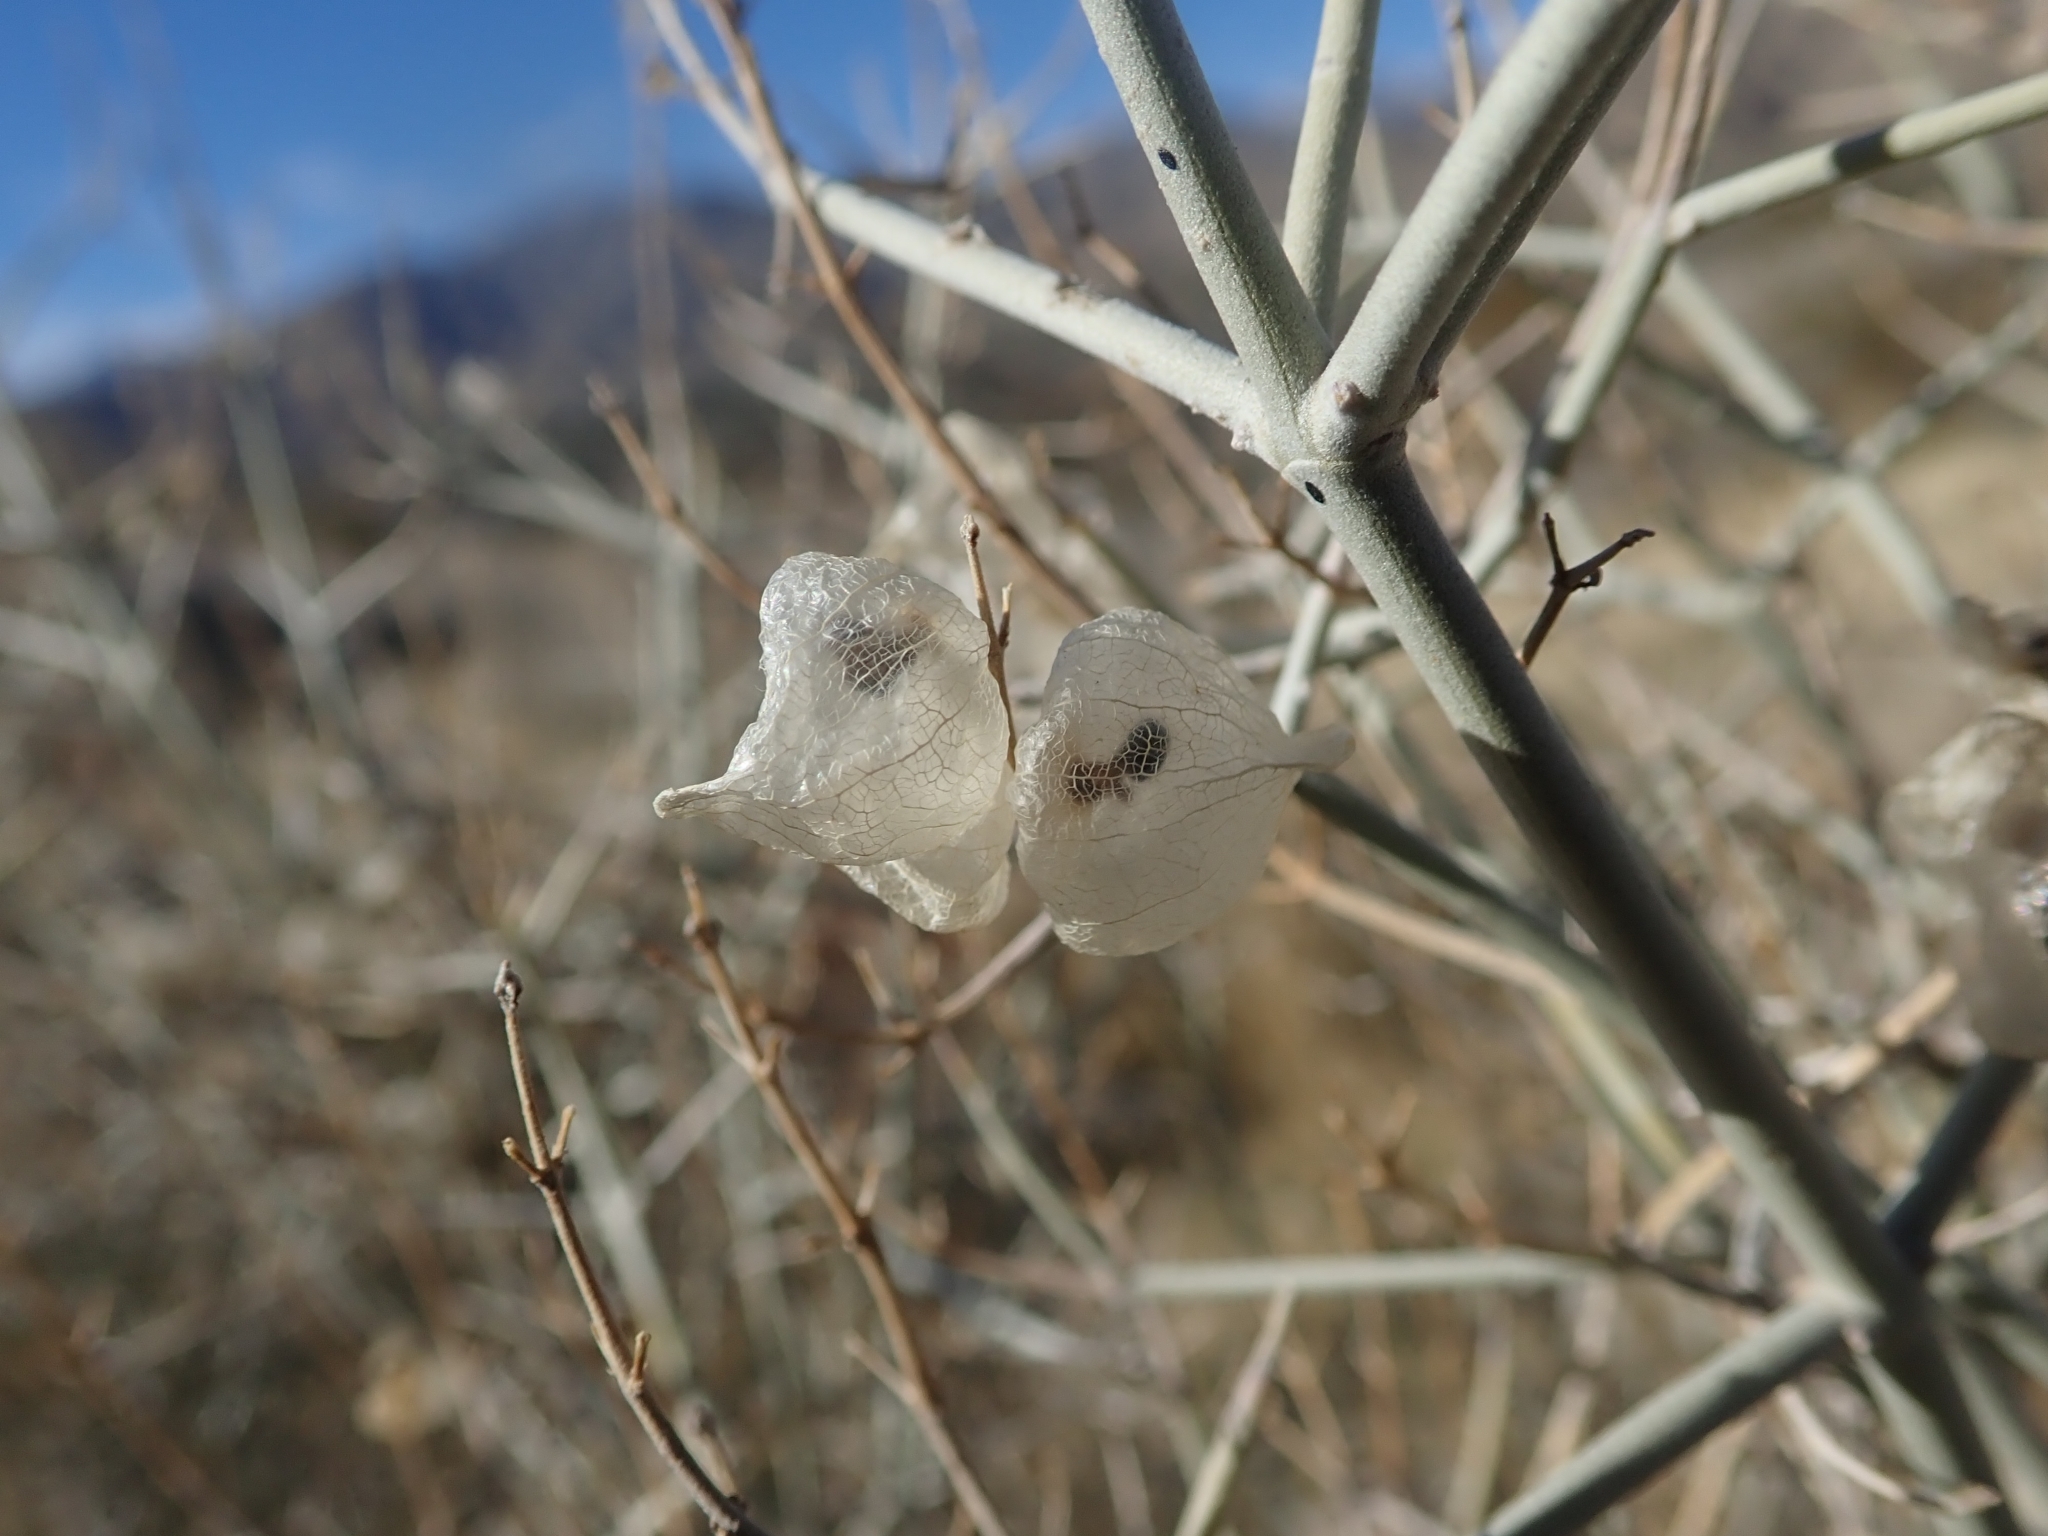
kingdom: Plantae
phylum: Tracheophyta
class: Magnoliopsida
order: Lamiales
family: Lamiaceae
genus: Scutellaria
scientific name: Scutellaria mexicana
